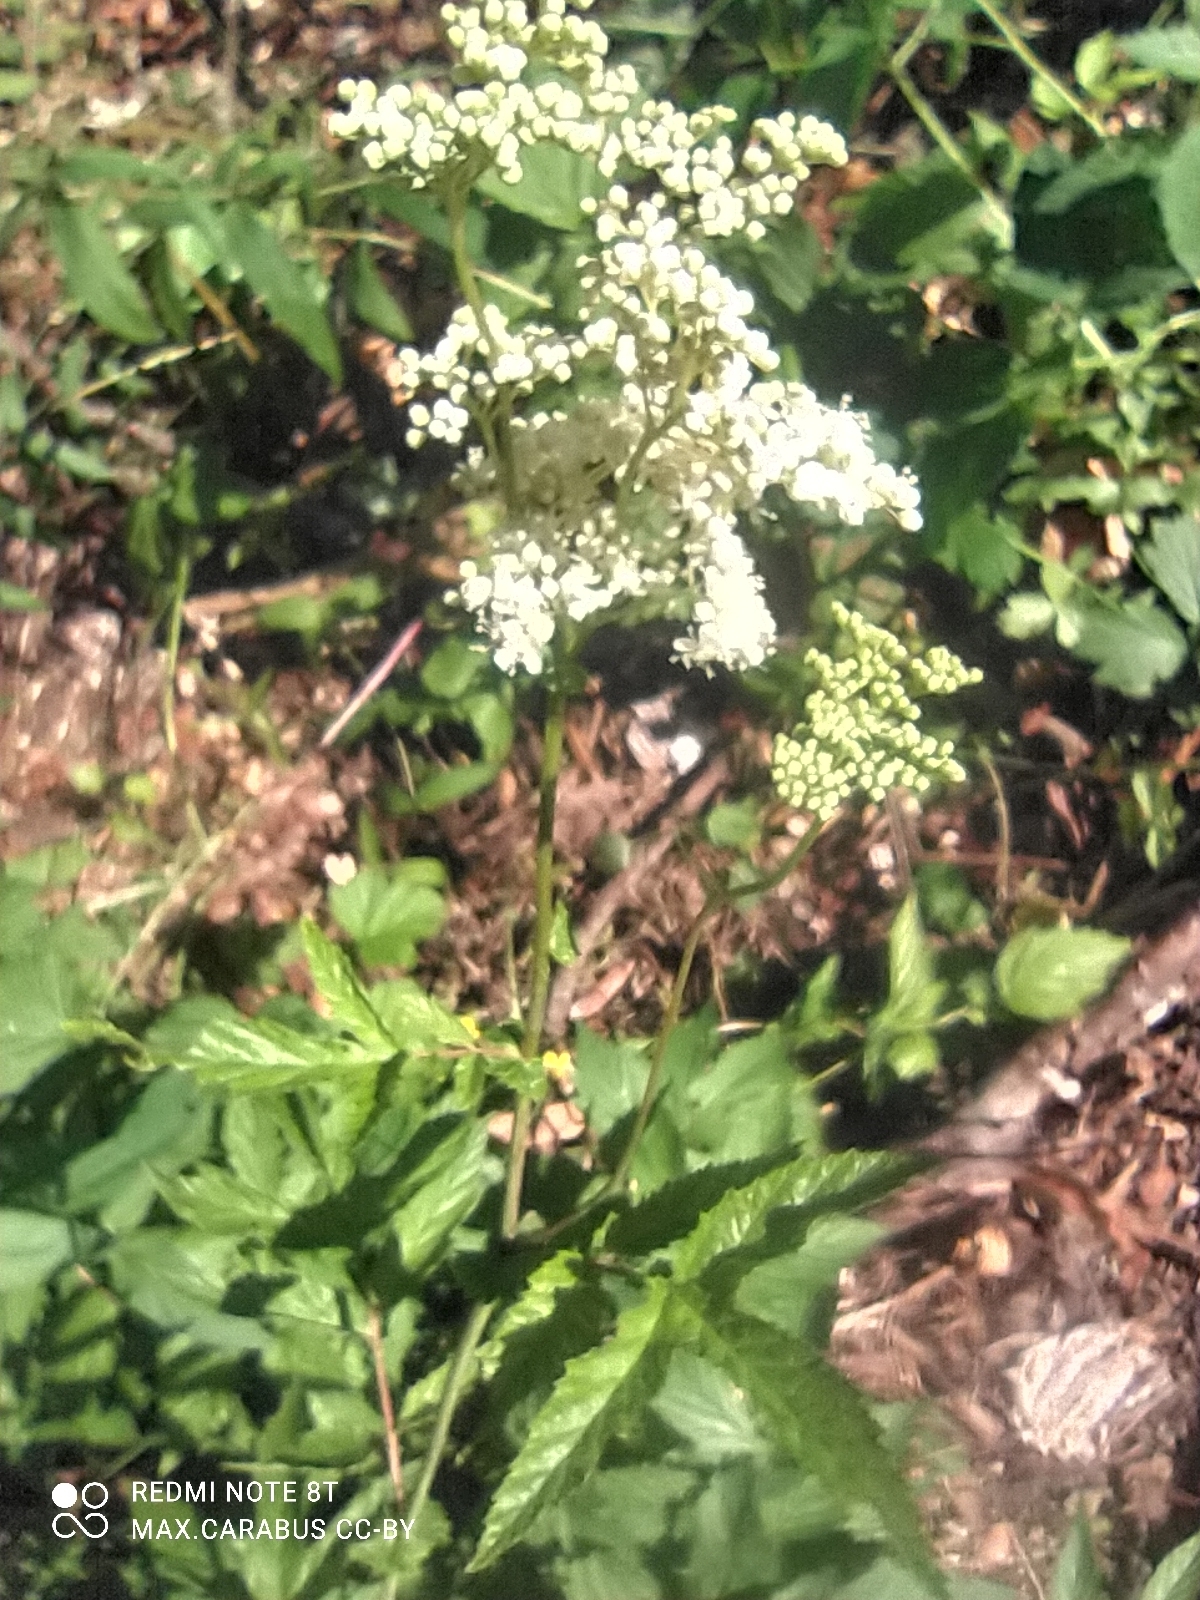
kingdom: Plantae
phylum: Tracheophyta
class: Magnoliopsida
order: Rosales
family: Rosaceae
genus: Filipendula
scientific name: Filipendula ulmaria
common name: Meadowsweet
